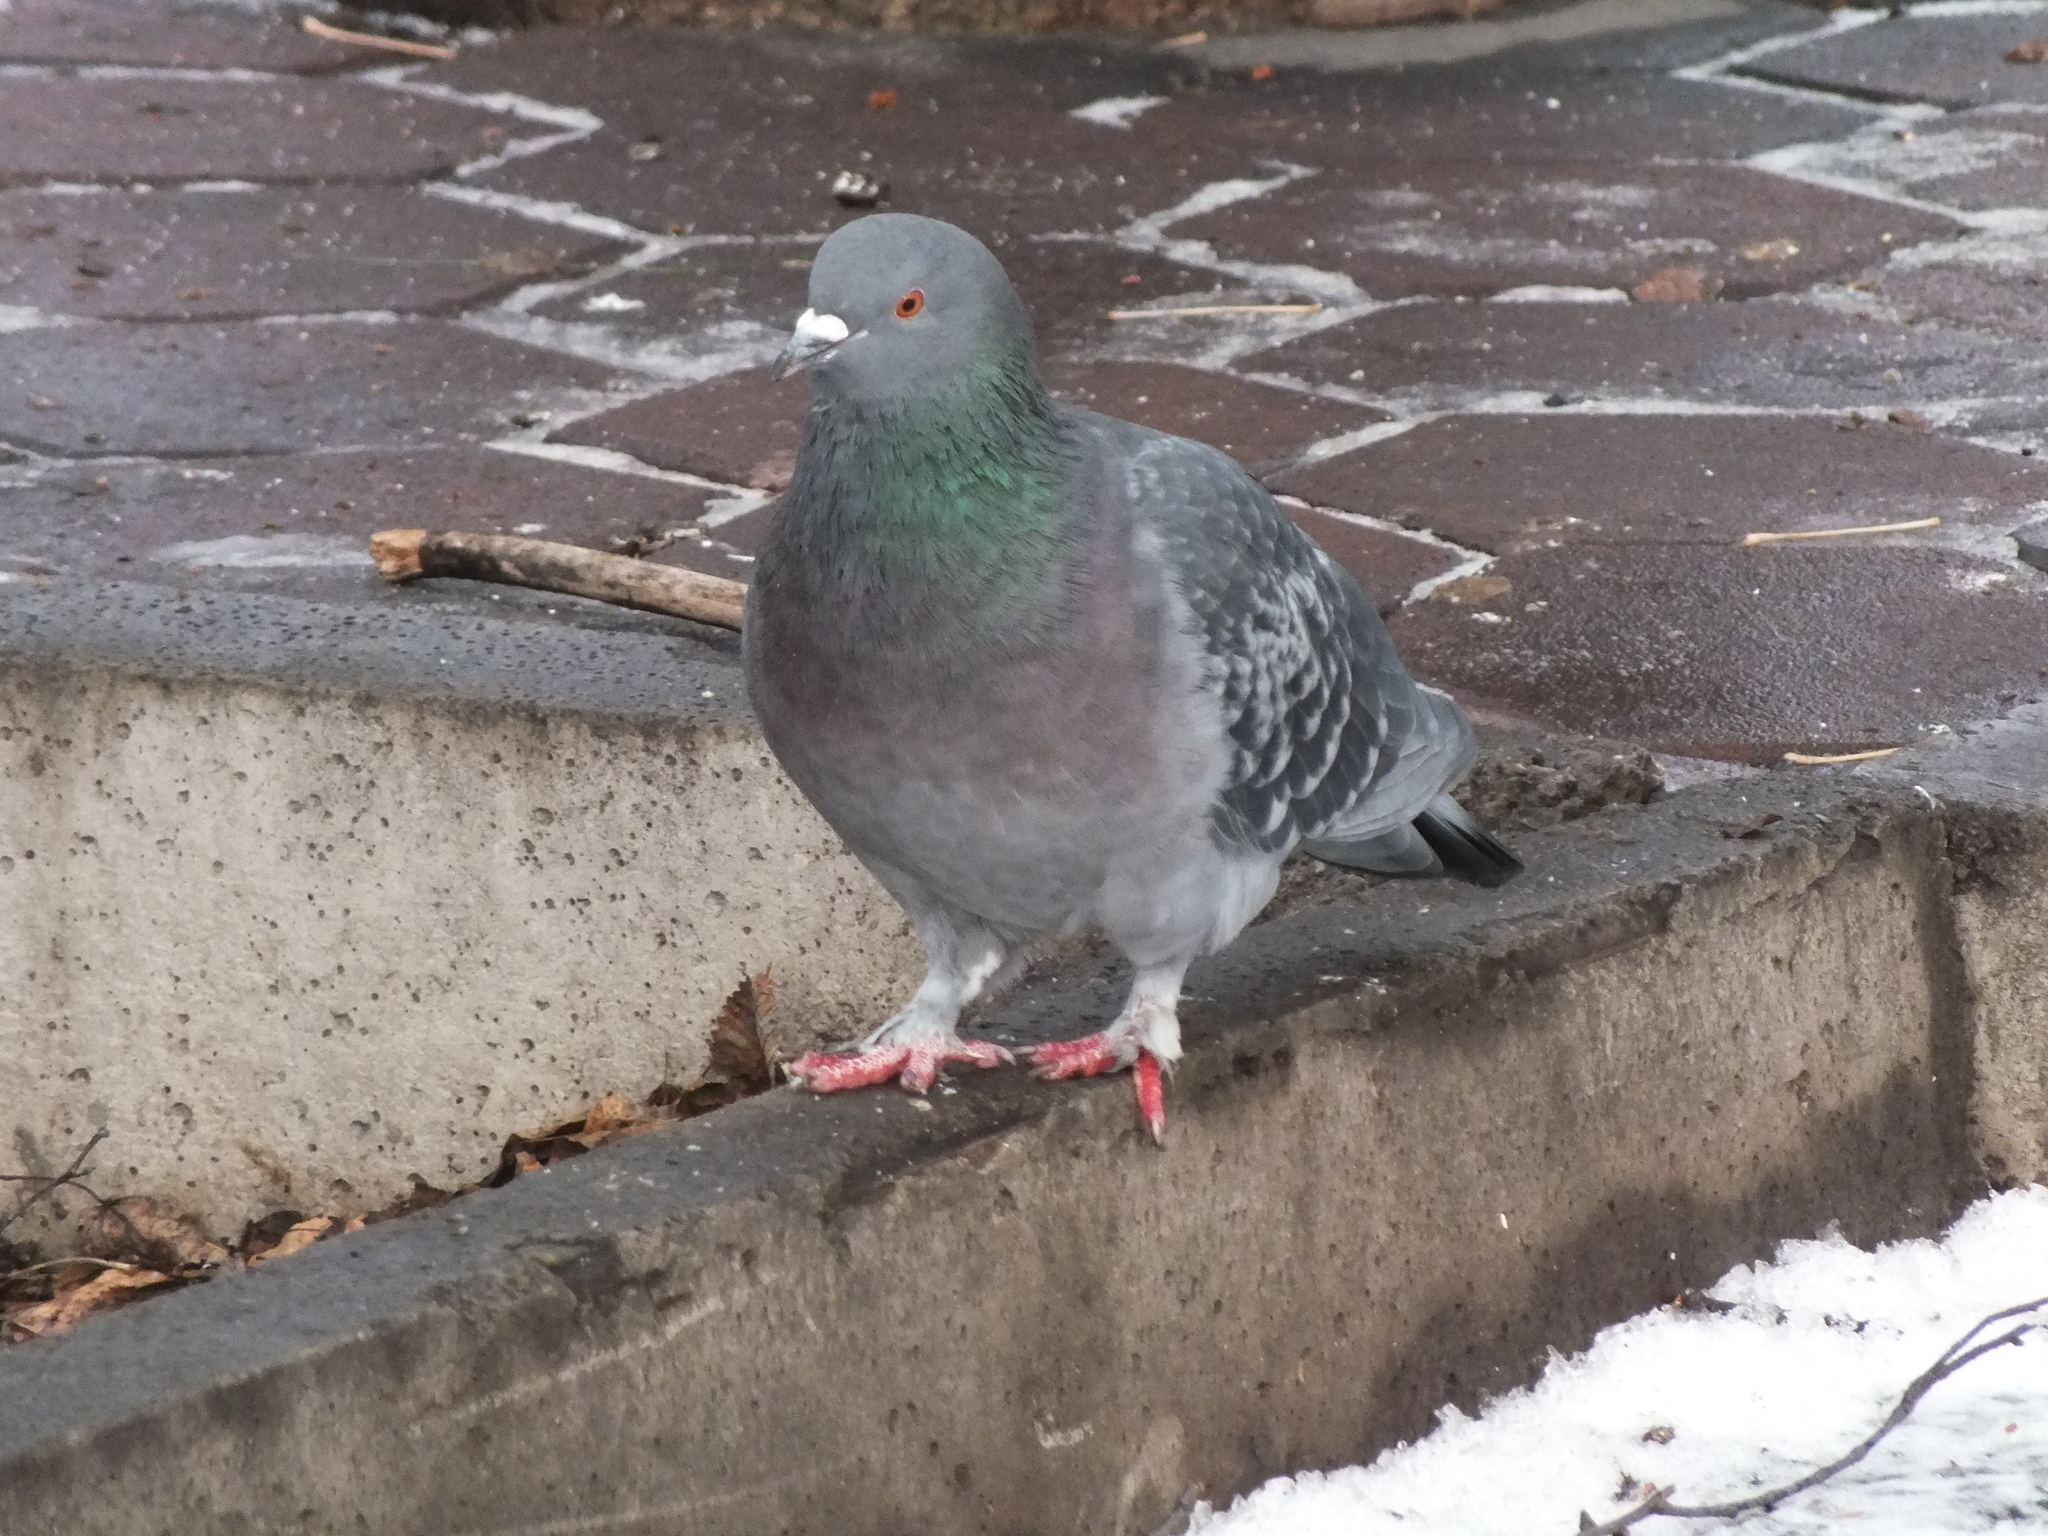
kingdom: Animalia
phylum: Chordata
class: Aves
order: Columbiformes
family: Columbidae
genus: Columba
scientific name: Columba livia
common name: Rock pigeon
